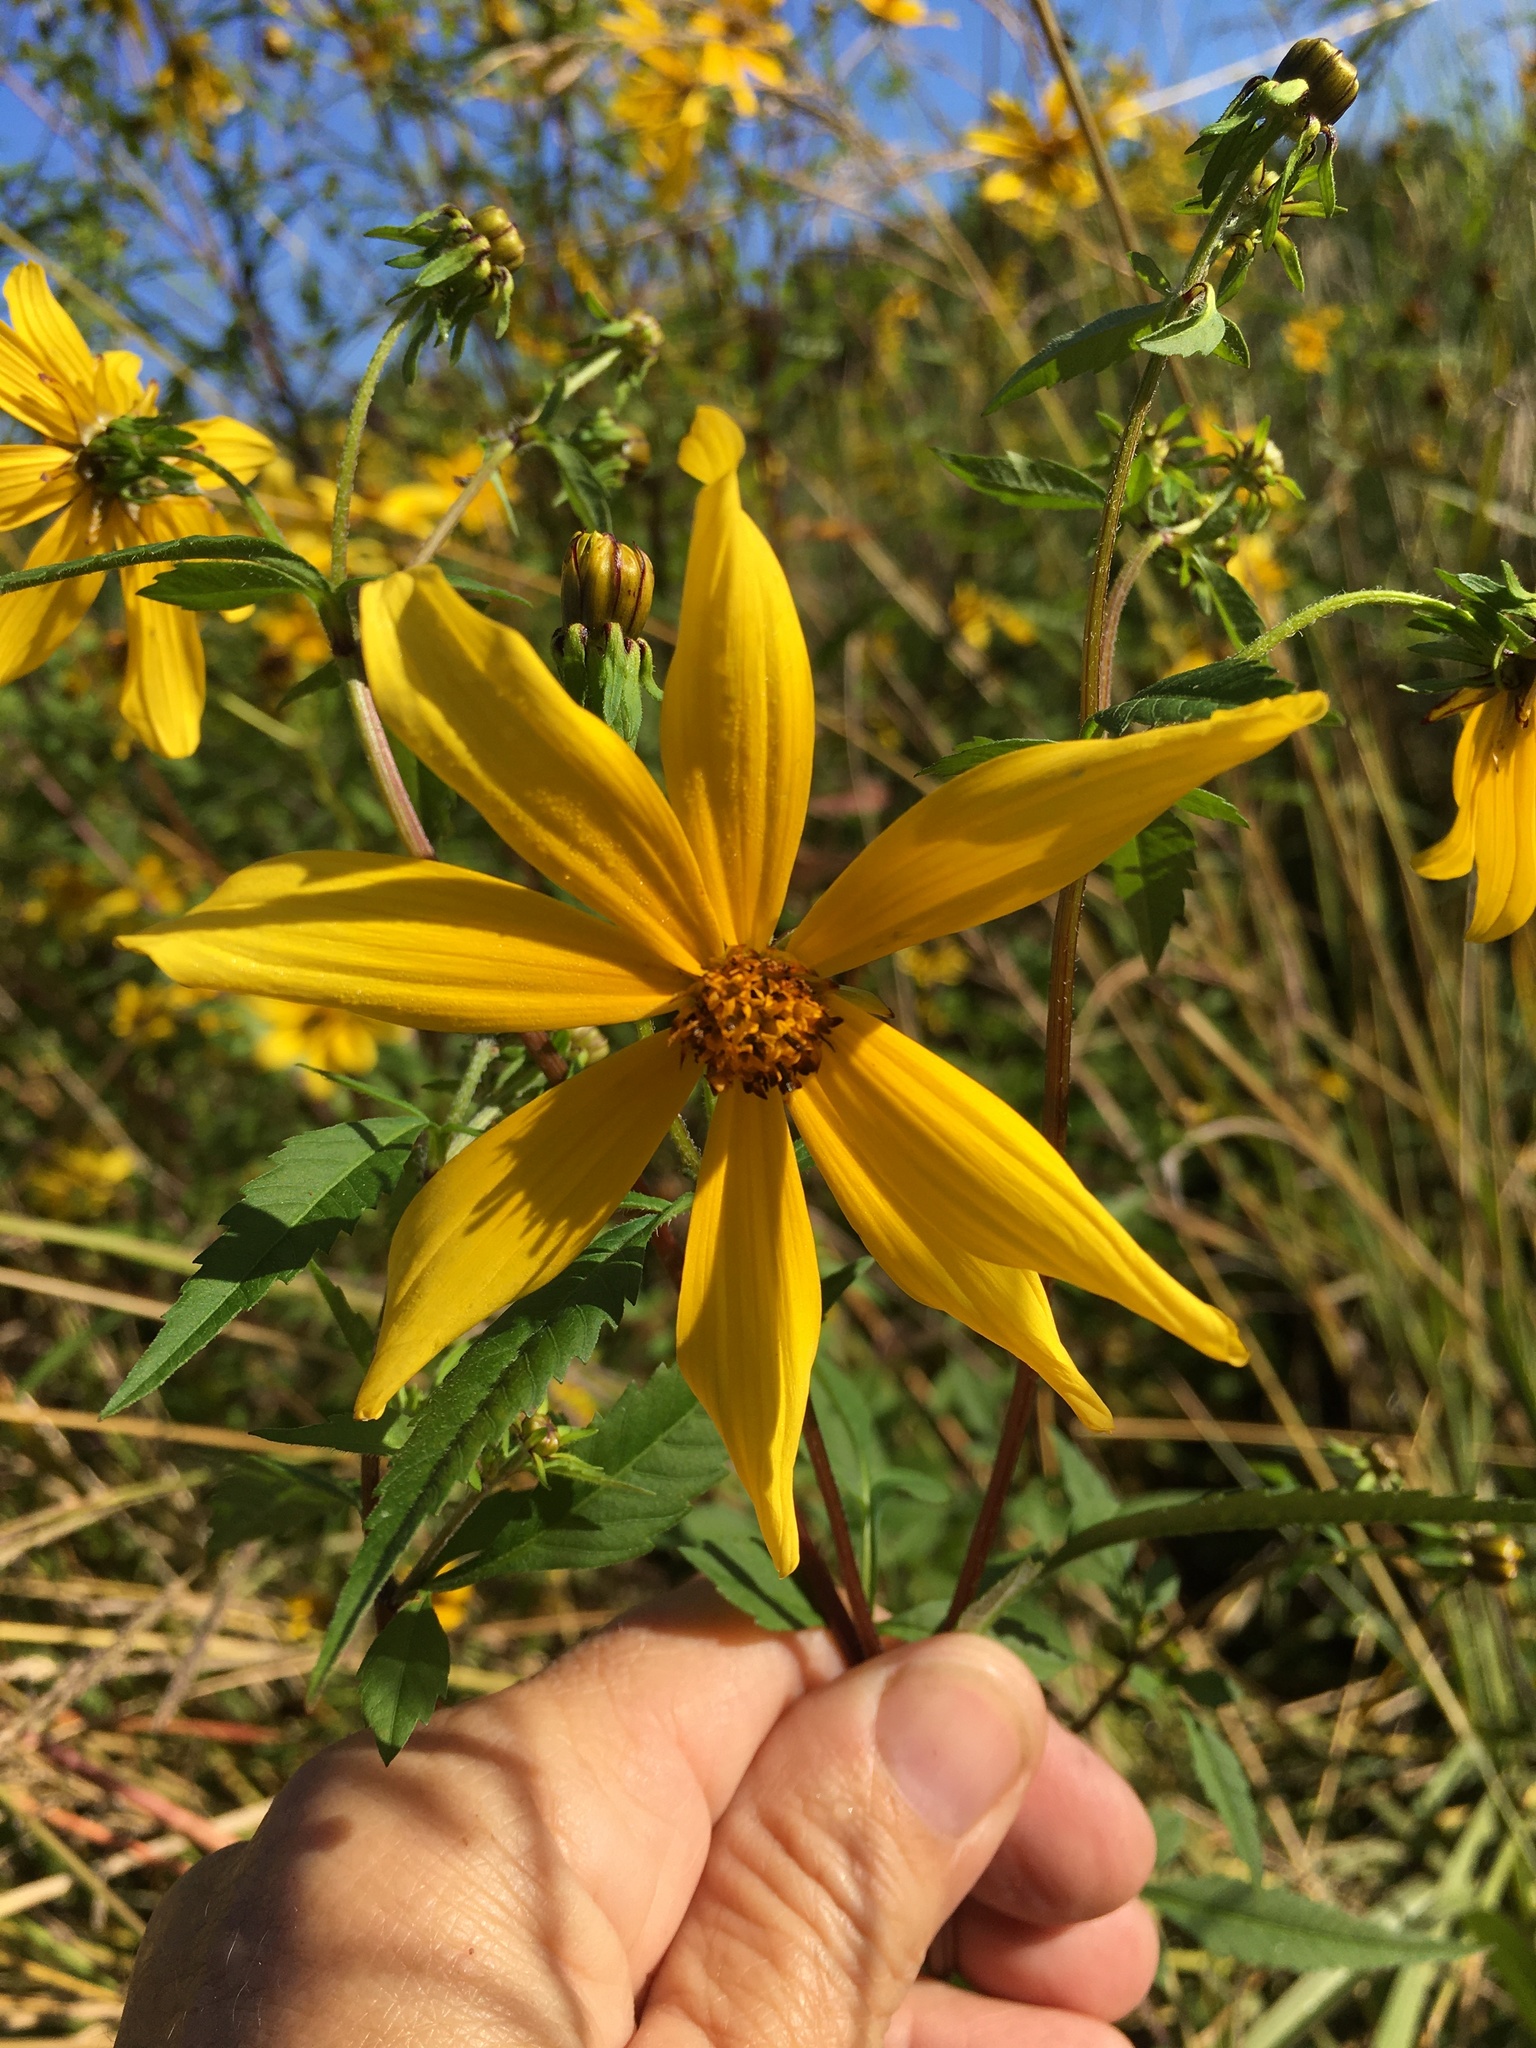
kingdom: Plantae
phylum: Tracheophyta
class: Magnoliopsida
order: Asterales
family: Asteraceae
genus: Bidens
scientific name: Bidens aristosa
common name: Western tickseed
